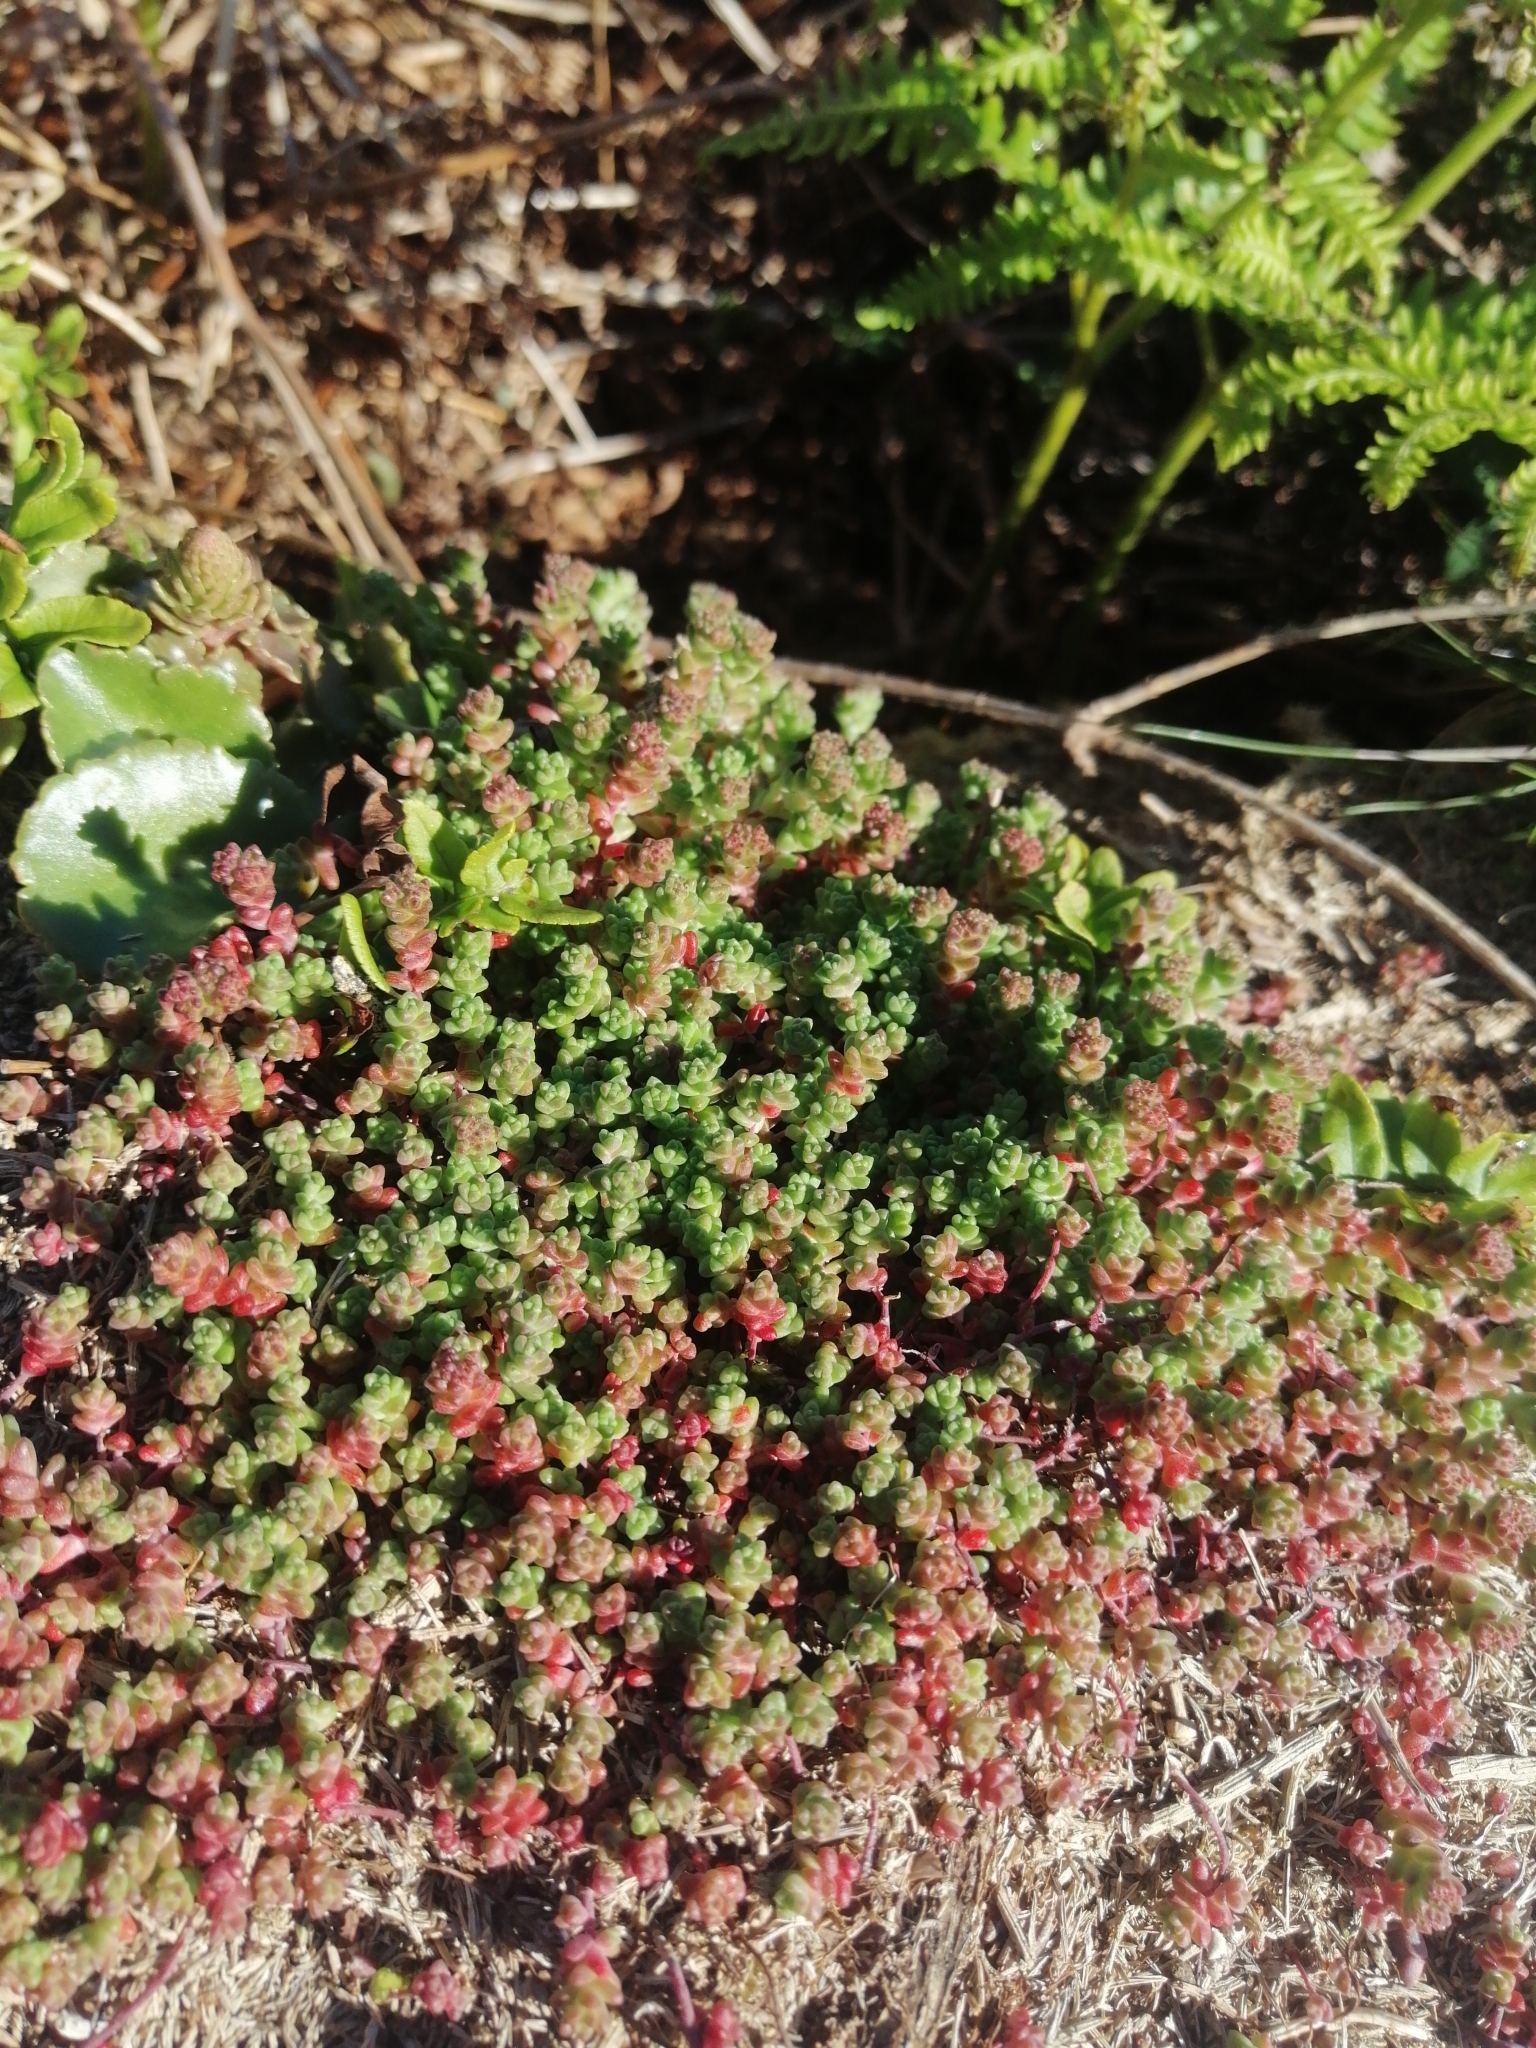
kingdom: Plantae
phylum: Tracheophyta
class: Magnoliopsida
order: Saxifragales
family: Crassulaceae
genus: Sedum
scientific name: Sedum anglicum
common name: English stonecrop
